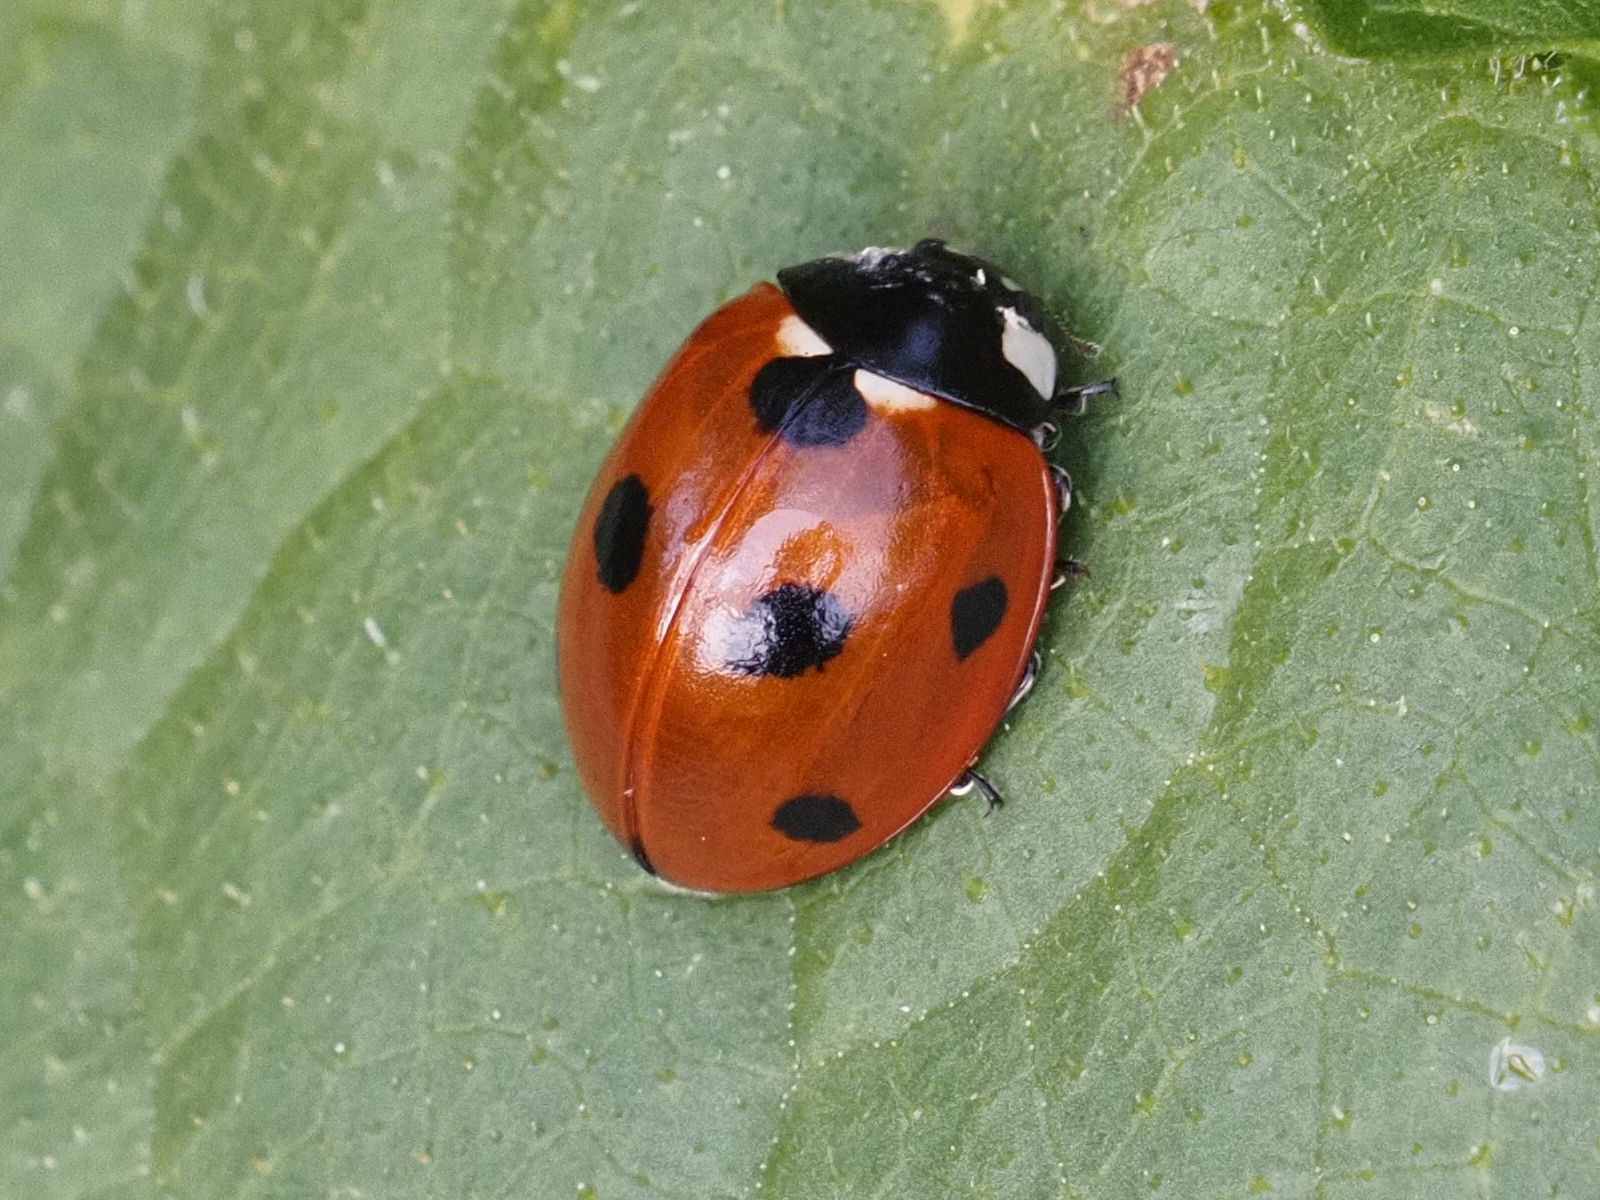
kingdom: Animalia
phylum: Arthropoda
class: Insecta
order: Coleoptera
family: Coccinellidae
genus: Coccinella
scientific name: Coccinella septempunctata
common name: Sevenspotted lady beetle
